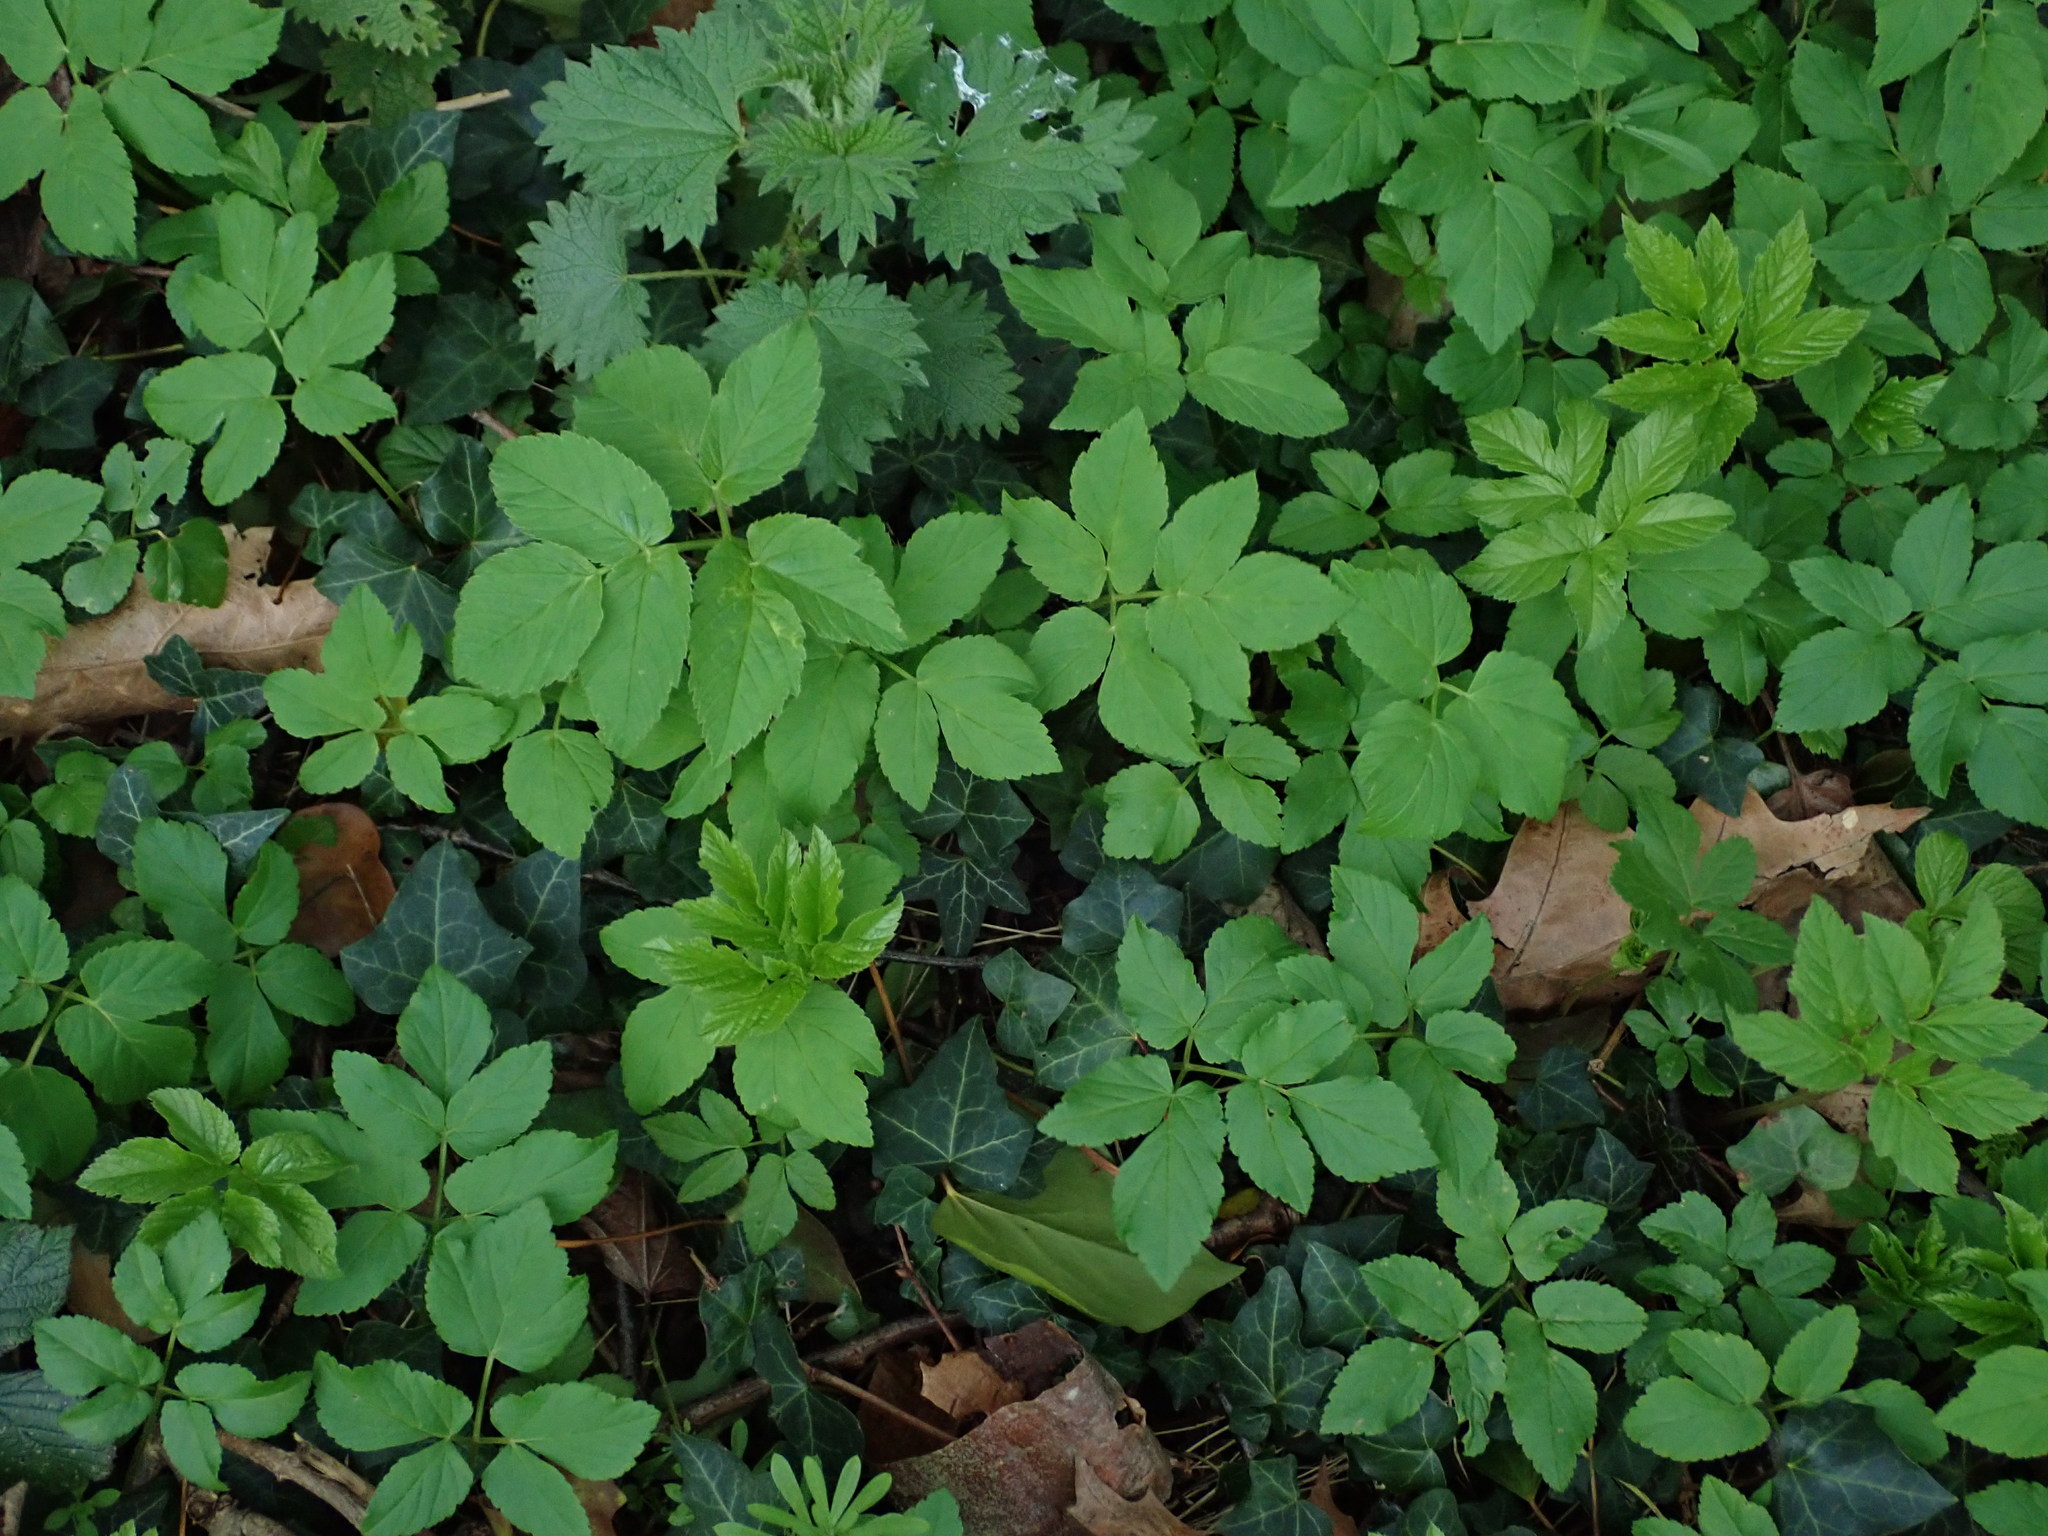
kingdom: Plantae
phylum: Tracheophyta
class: Magnoliopsida
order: Apiales
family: Apiaceae
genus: Aegopodium
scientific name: Aegopodium podagraria
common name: Ground-elder
